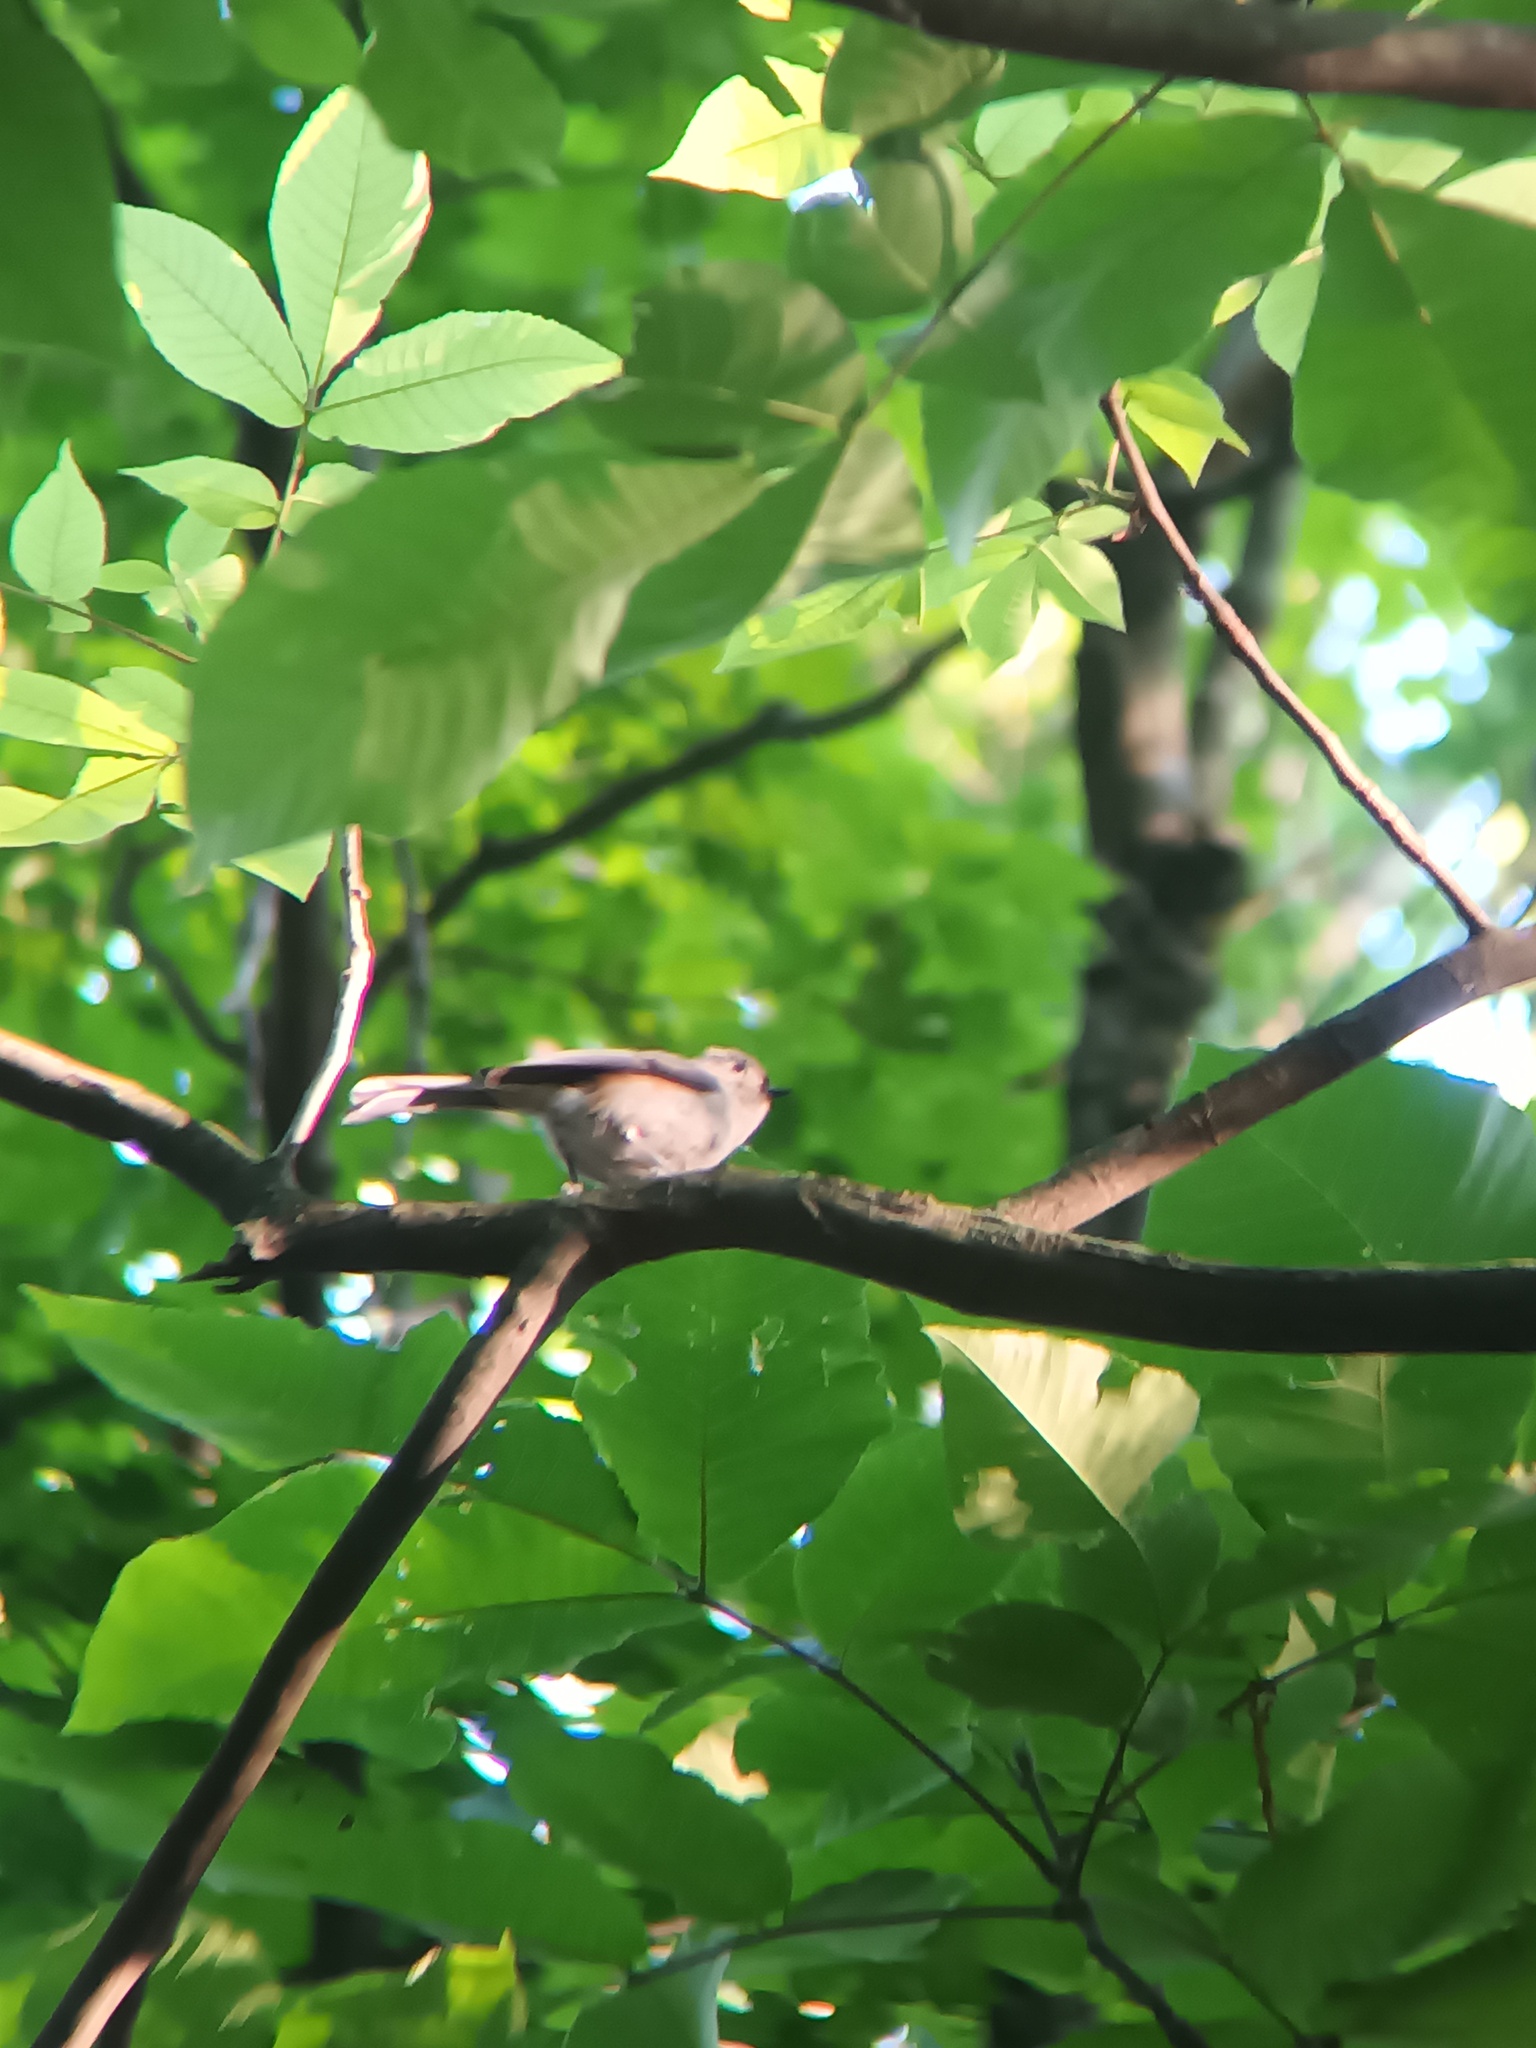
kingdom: Animalia
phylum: Chordata
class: Aves
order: Passeriformes
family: Paridae
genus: Baeolophus
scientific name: Baeolophus bicolor
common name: Tufted titmouse
